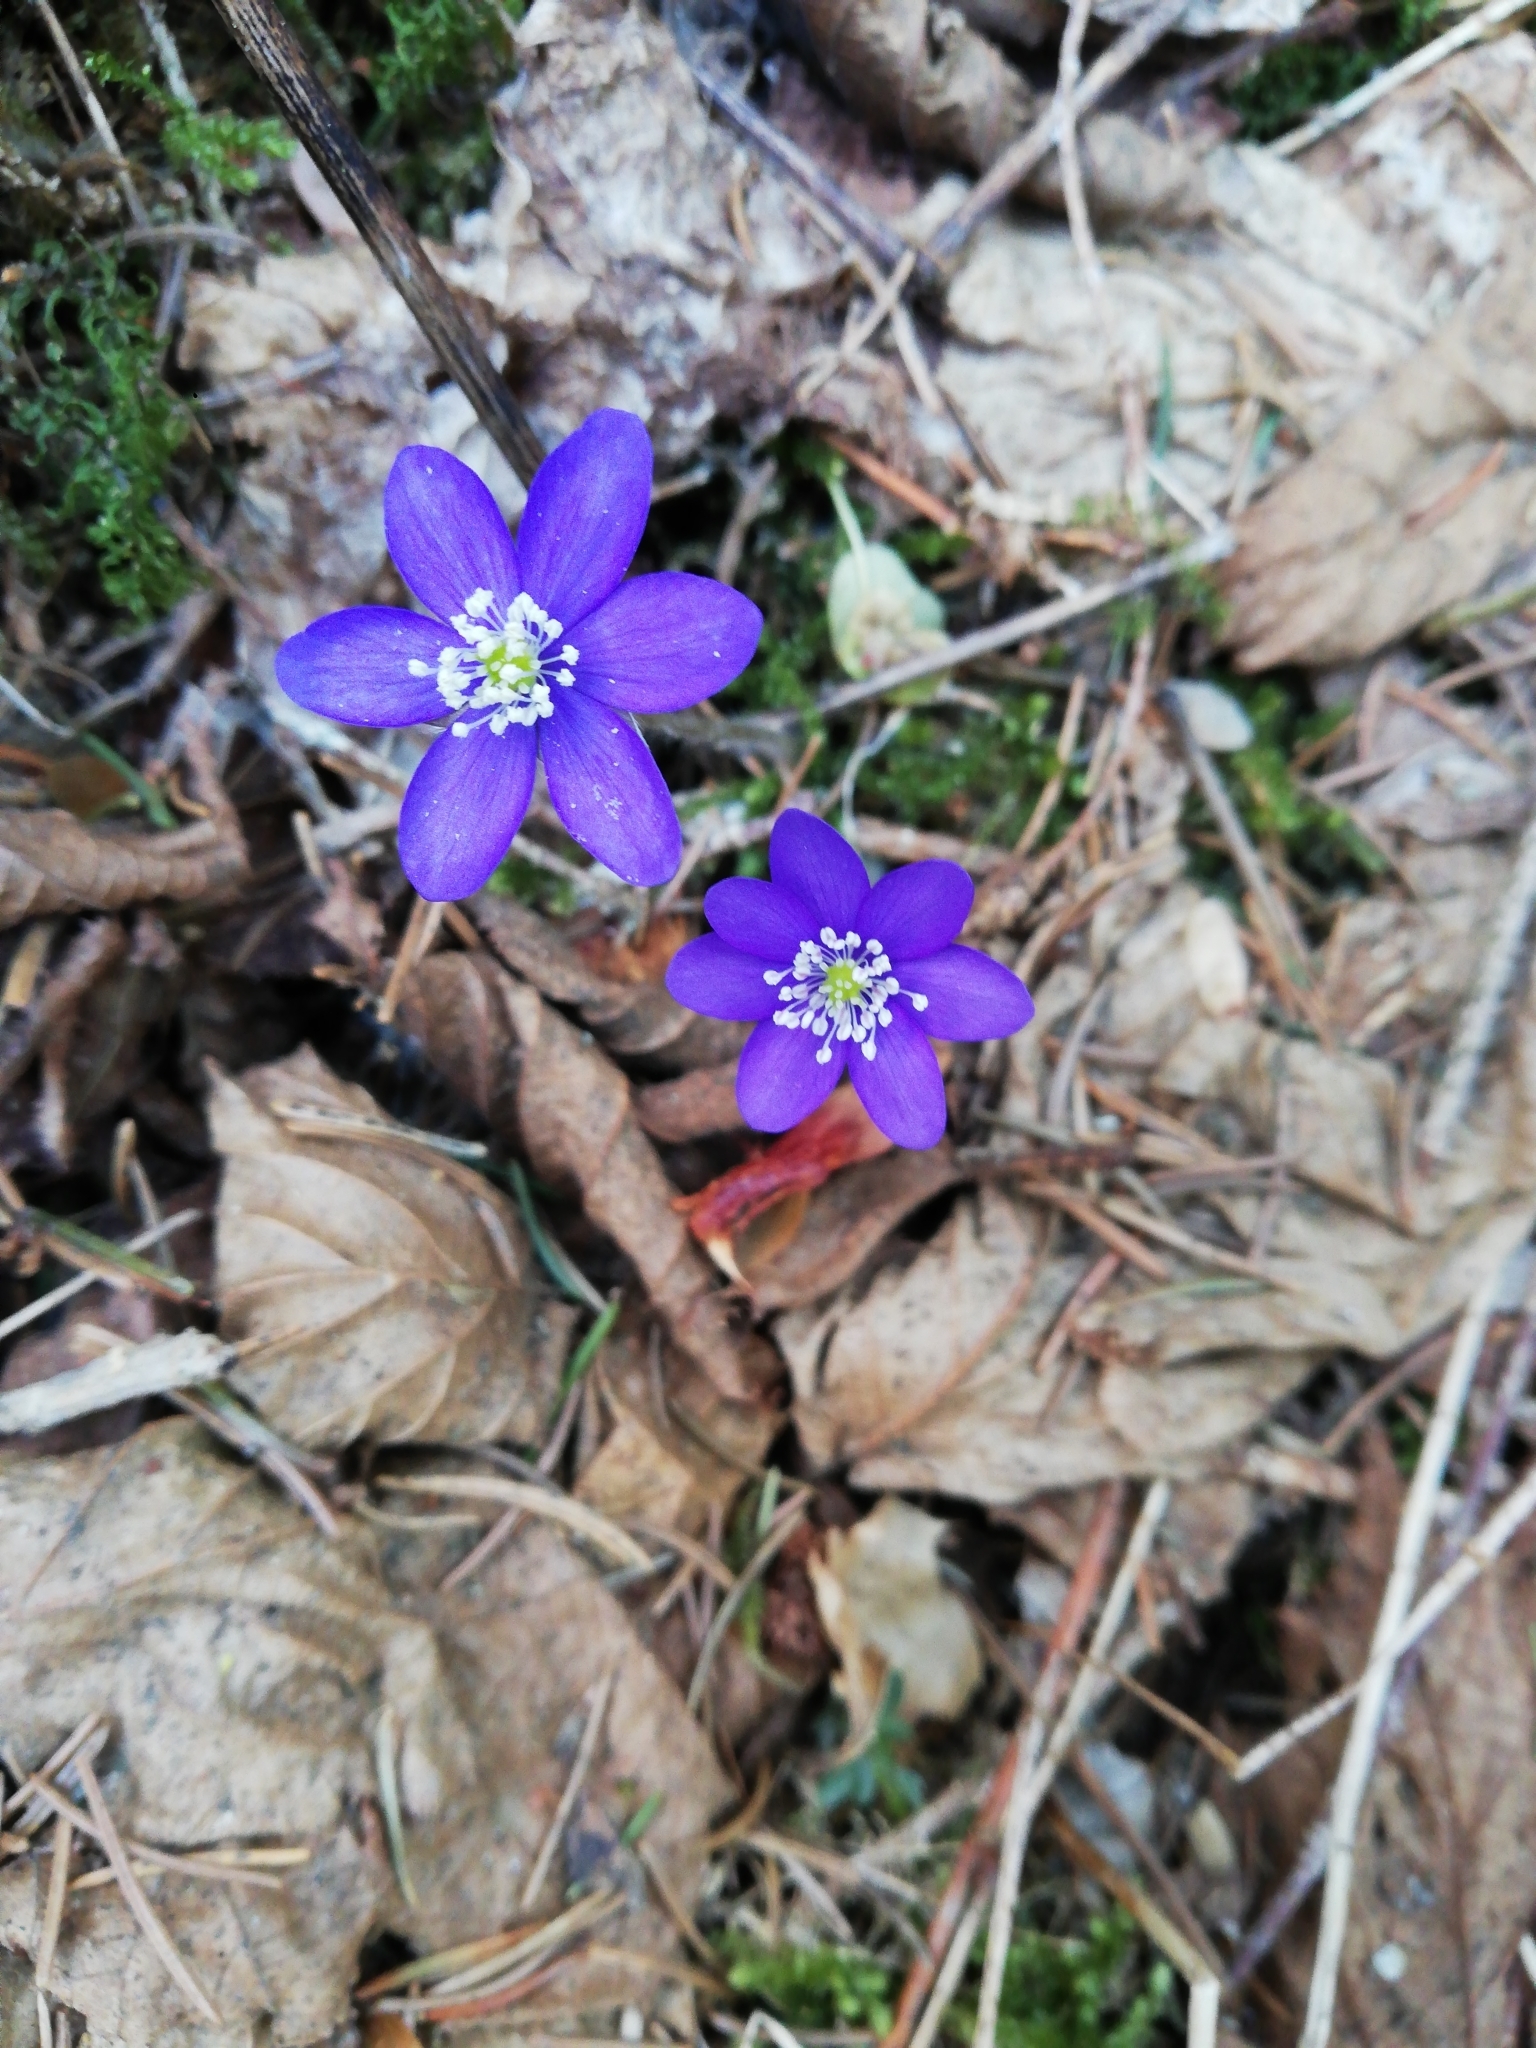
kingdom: Plantae
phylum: Tracheophyta
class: Magnoliopsida
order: Ranunculales
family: Ranunculaceae
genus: Hepatica
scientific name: Hepatica nobilis
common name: Liverleaf
